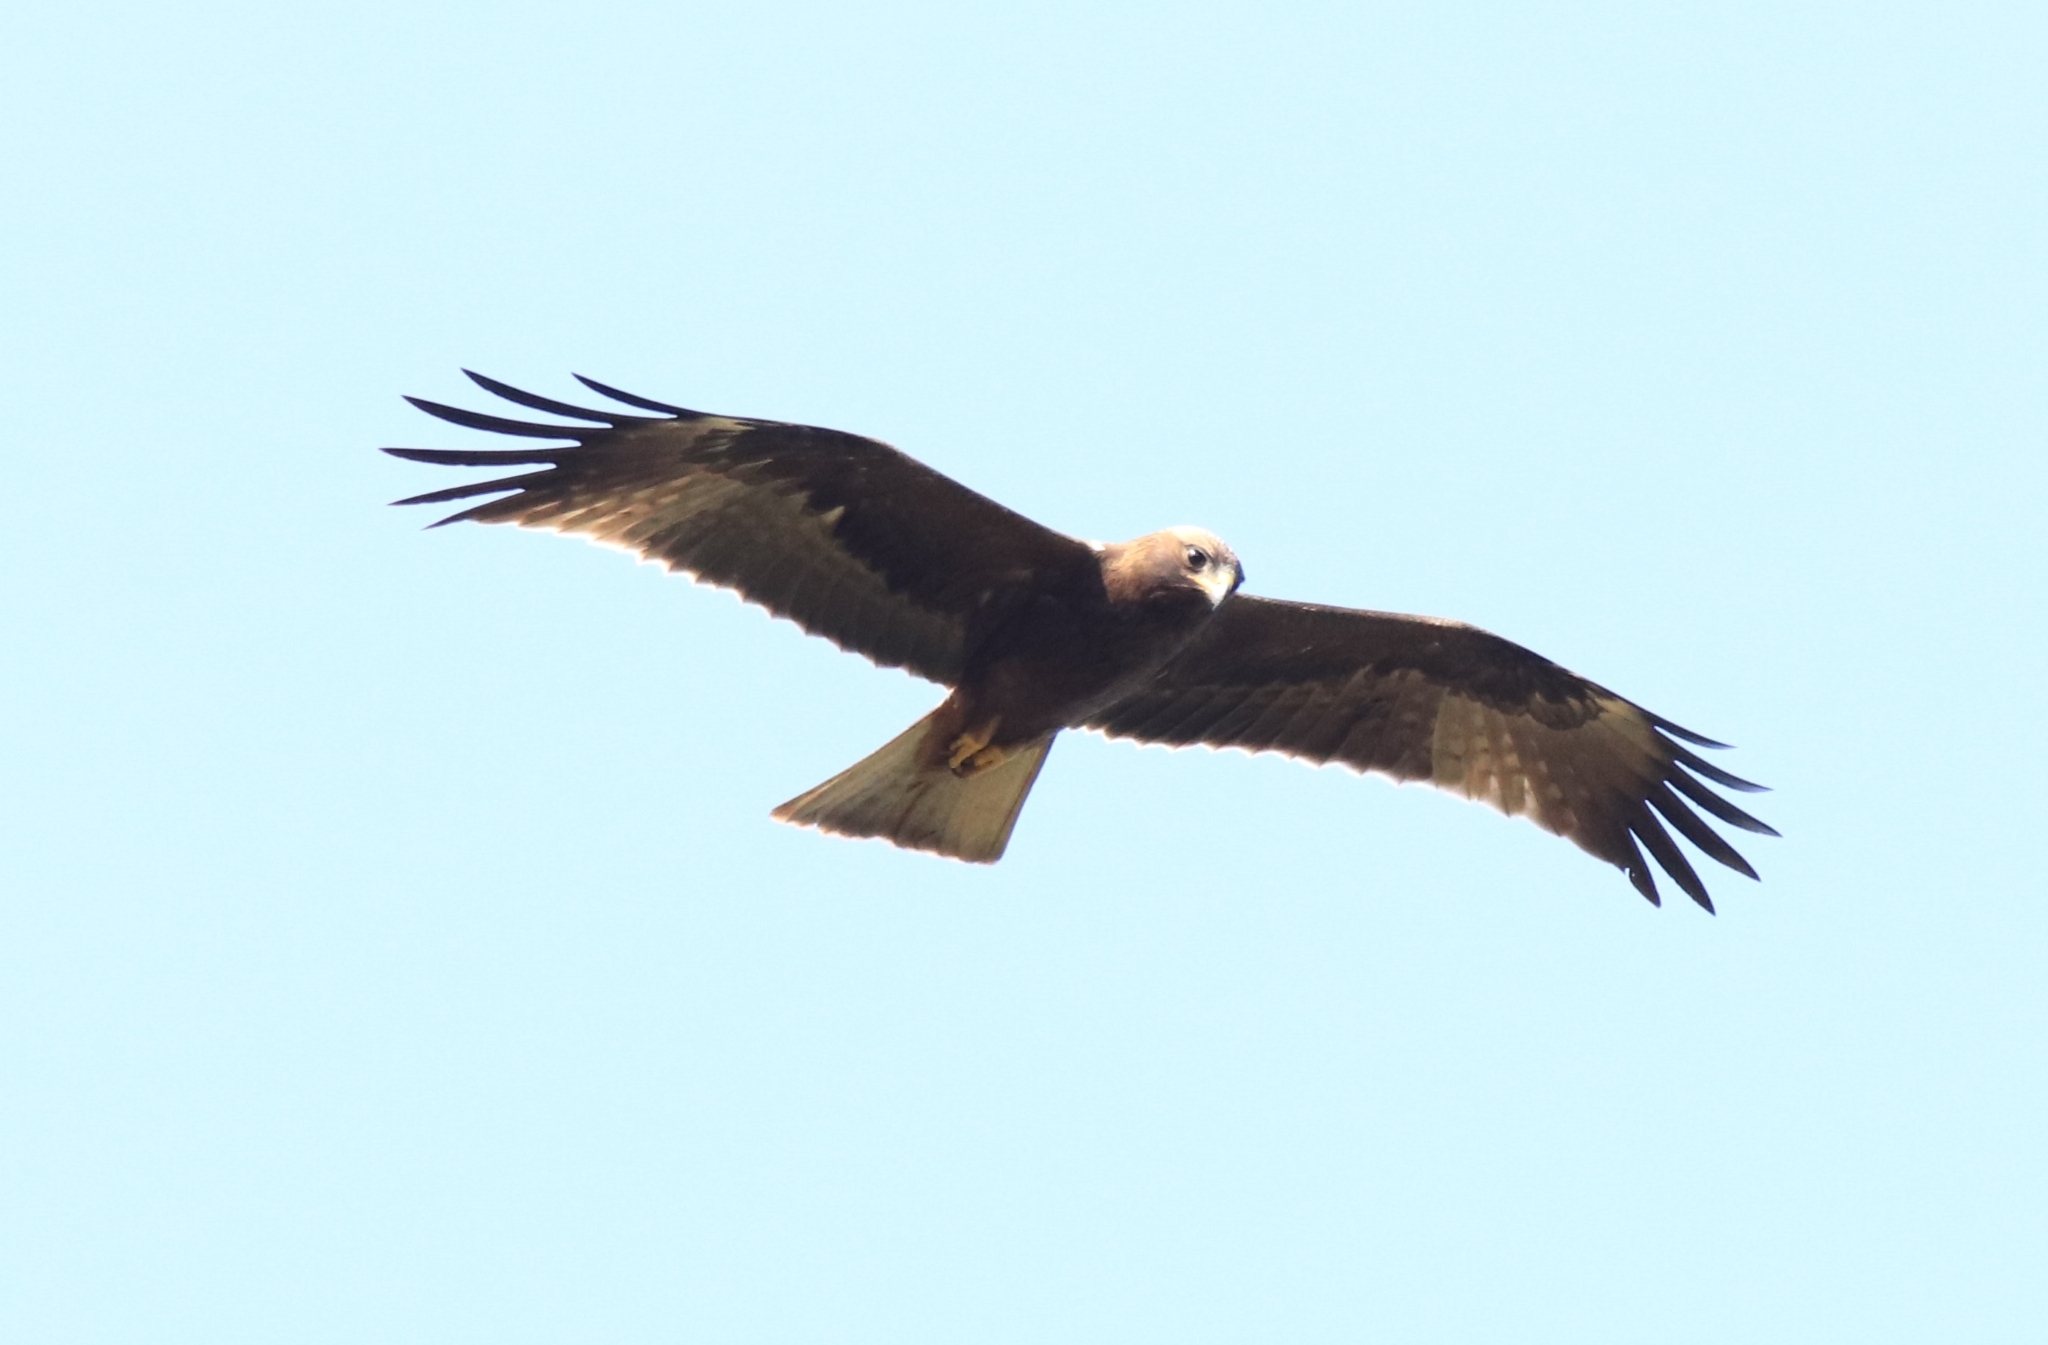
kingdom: Animalia
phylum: Chordata
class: Aves
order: Accipitriformes
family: Accipitridae
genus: Hieraaetus
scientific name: Hieraaetus pennatus
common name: Booted eagle
